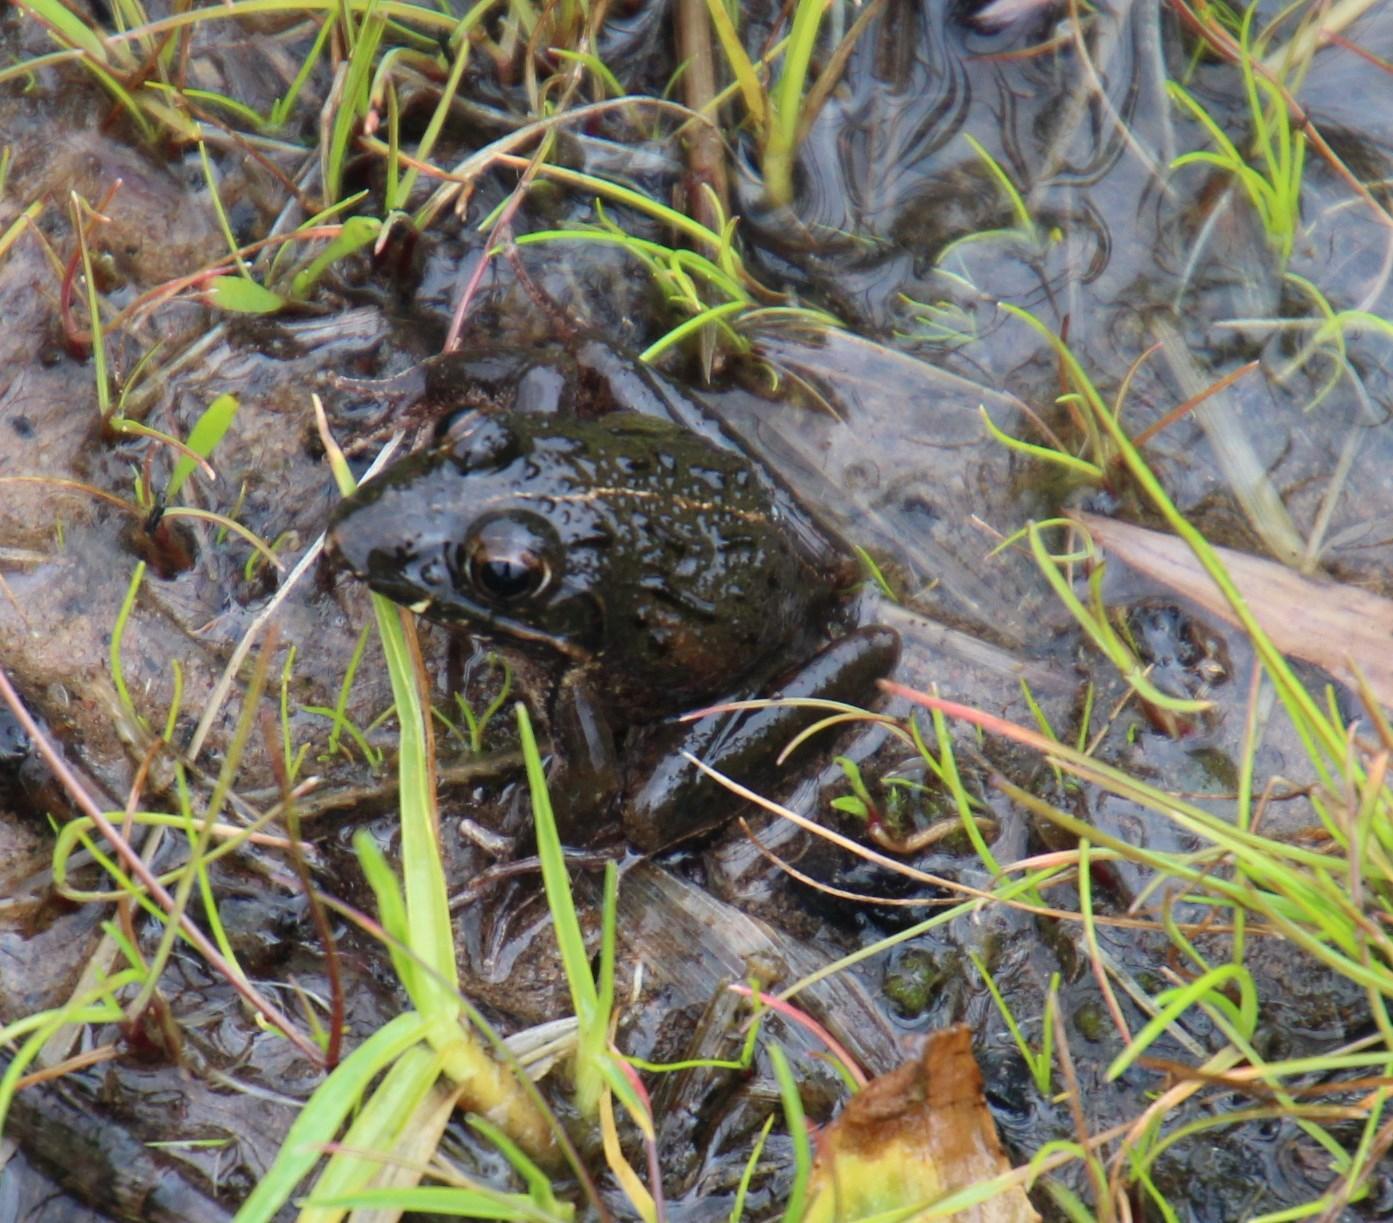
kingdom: Animalia
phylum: Chordata
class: Amphibia
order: Anura
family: Pyxicephalidae
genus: Amietia
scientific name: Amietia fuscigula
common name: Cape rana
